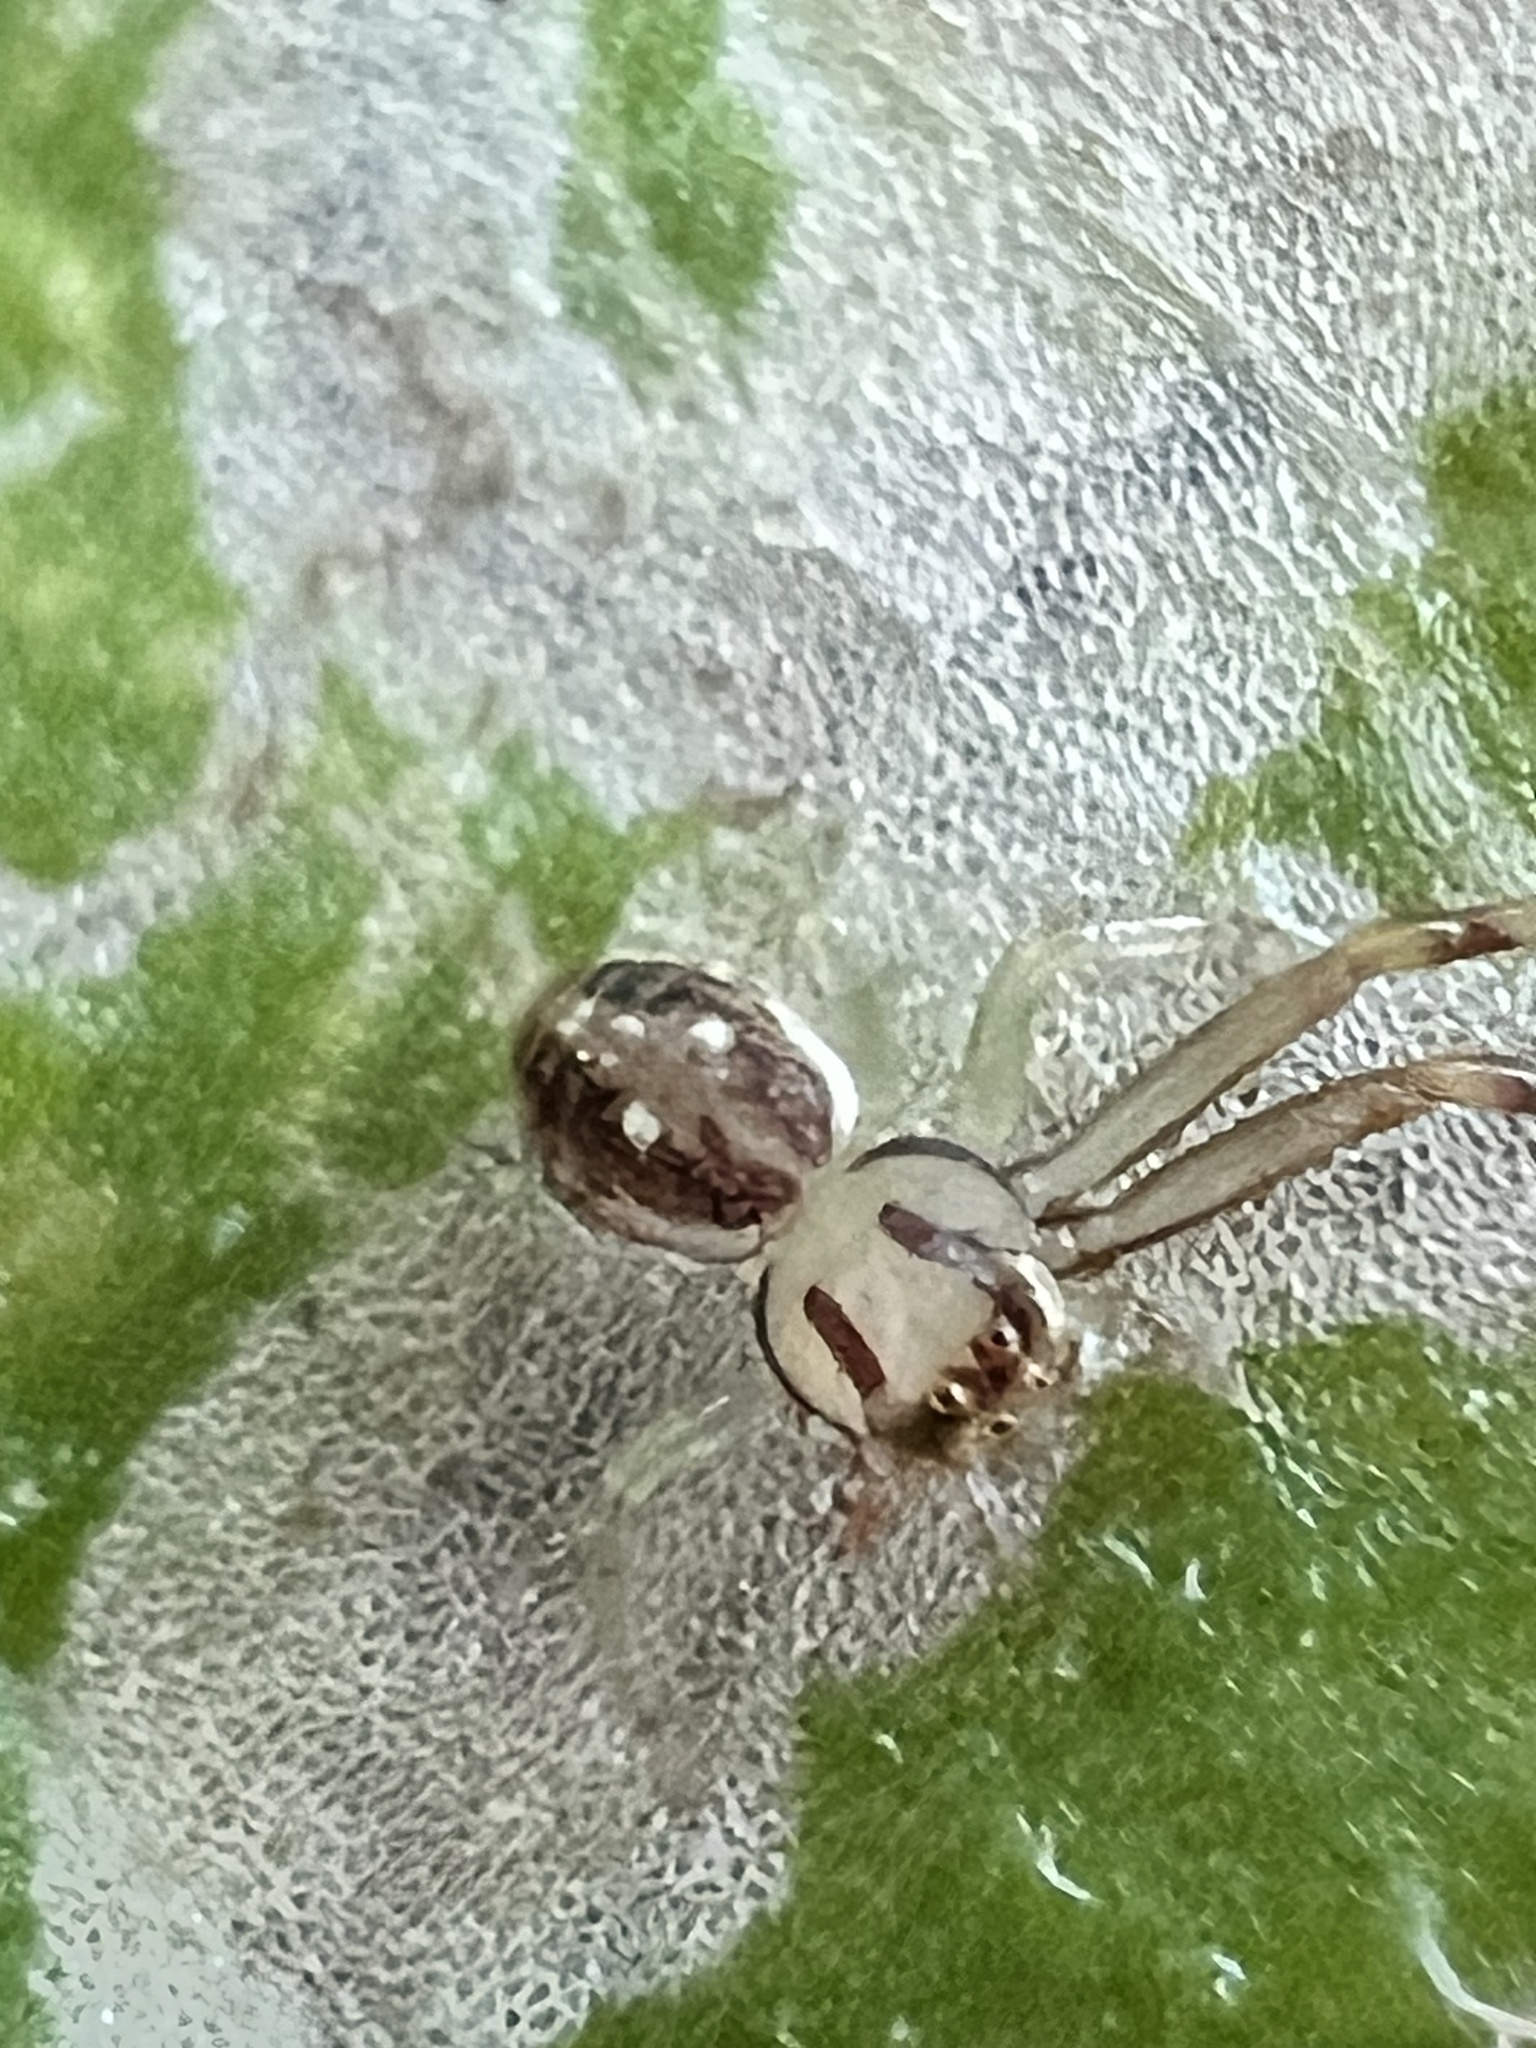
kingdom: Animalia
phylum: Arthropoda
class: Arachnida
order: Araneae
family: Thomisidae
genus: Diaea
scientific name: Diaea ambara
